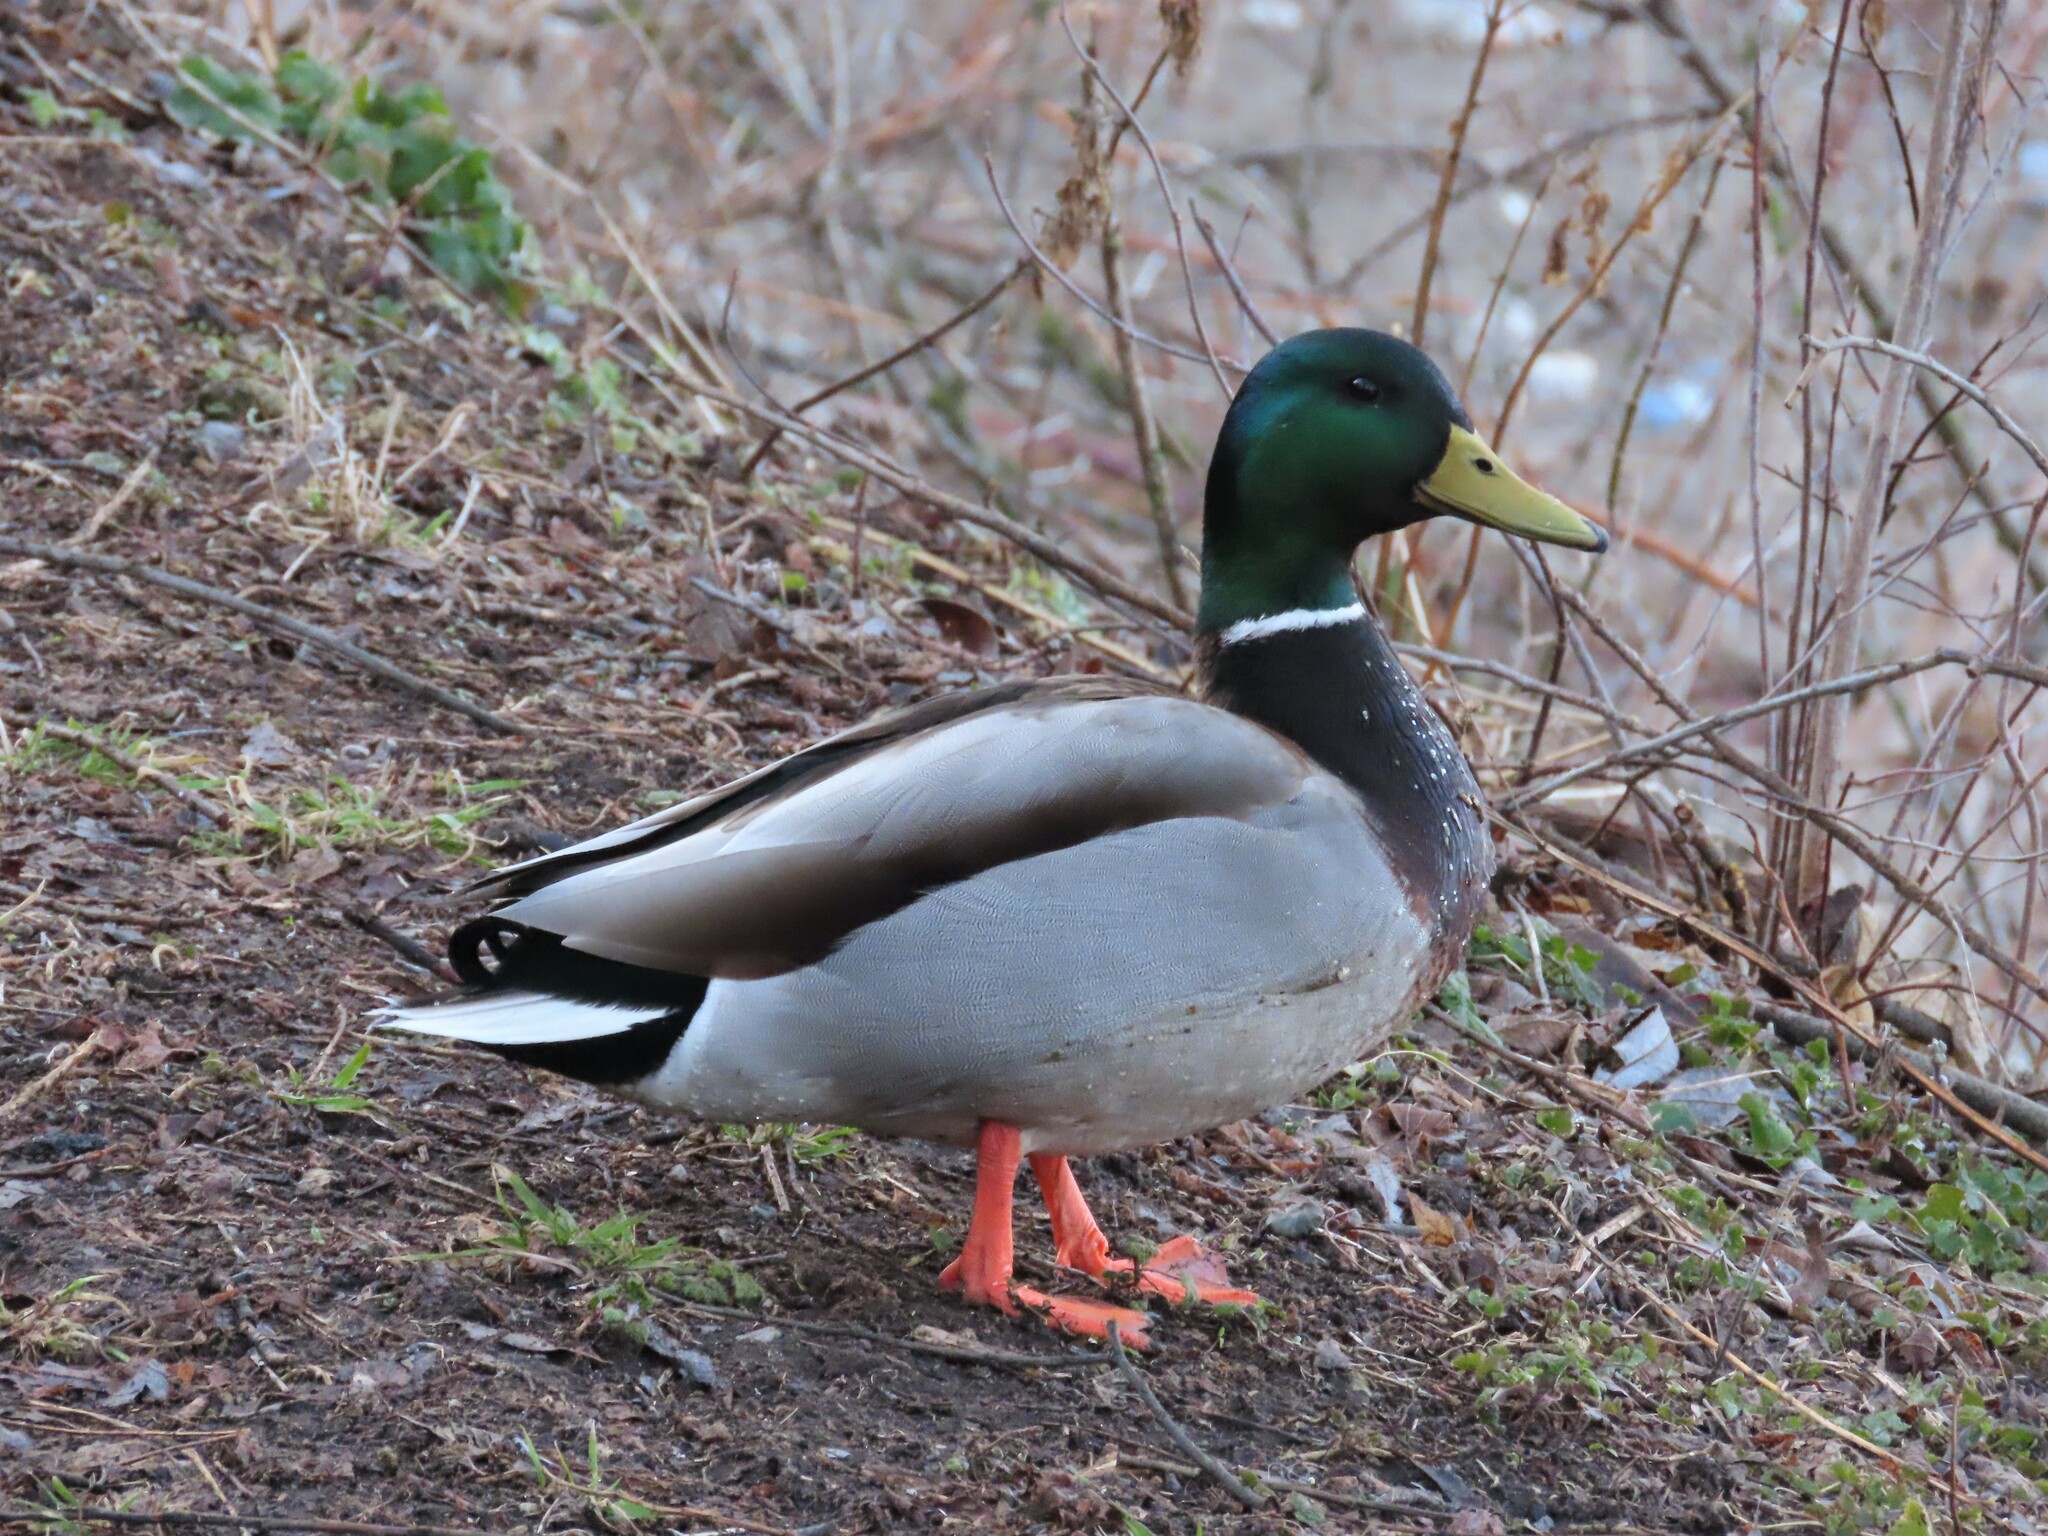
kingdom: Animalia
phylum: Chordata
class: Aves
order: Anseriformes
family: Anatidae
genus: Anas
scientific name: Anas platyrhynchos
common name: Mallard
